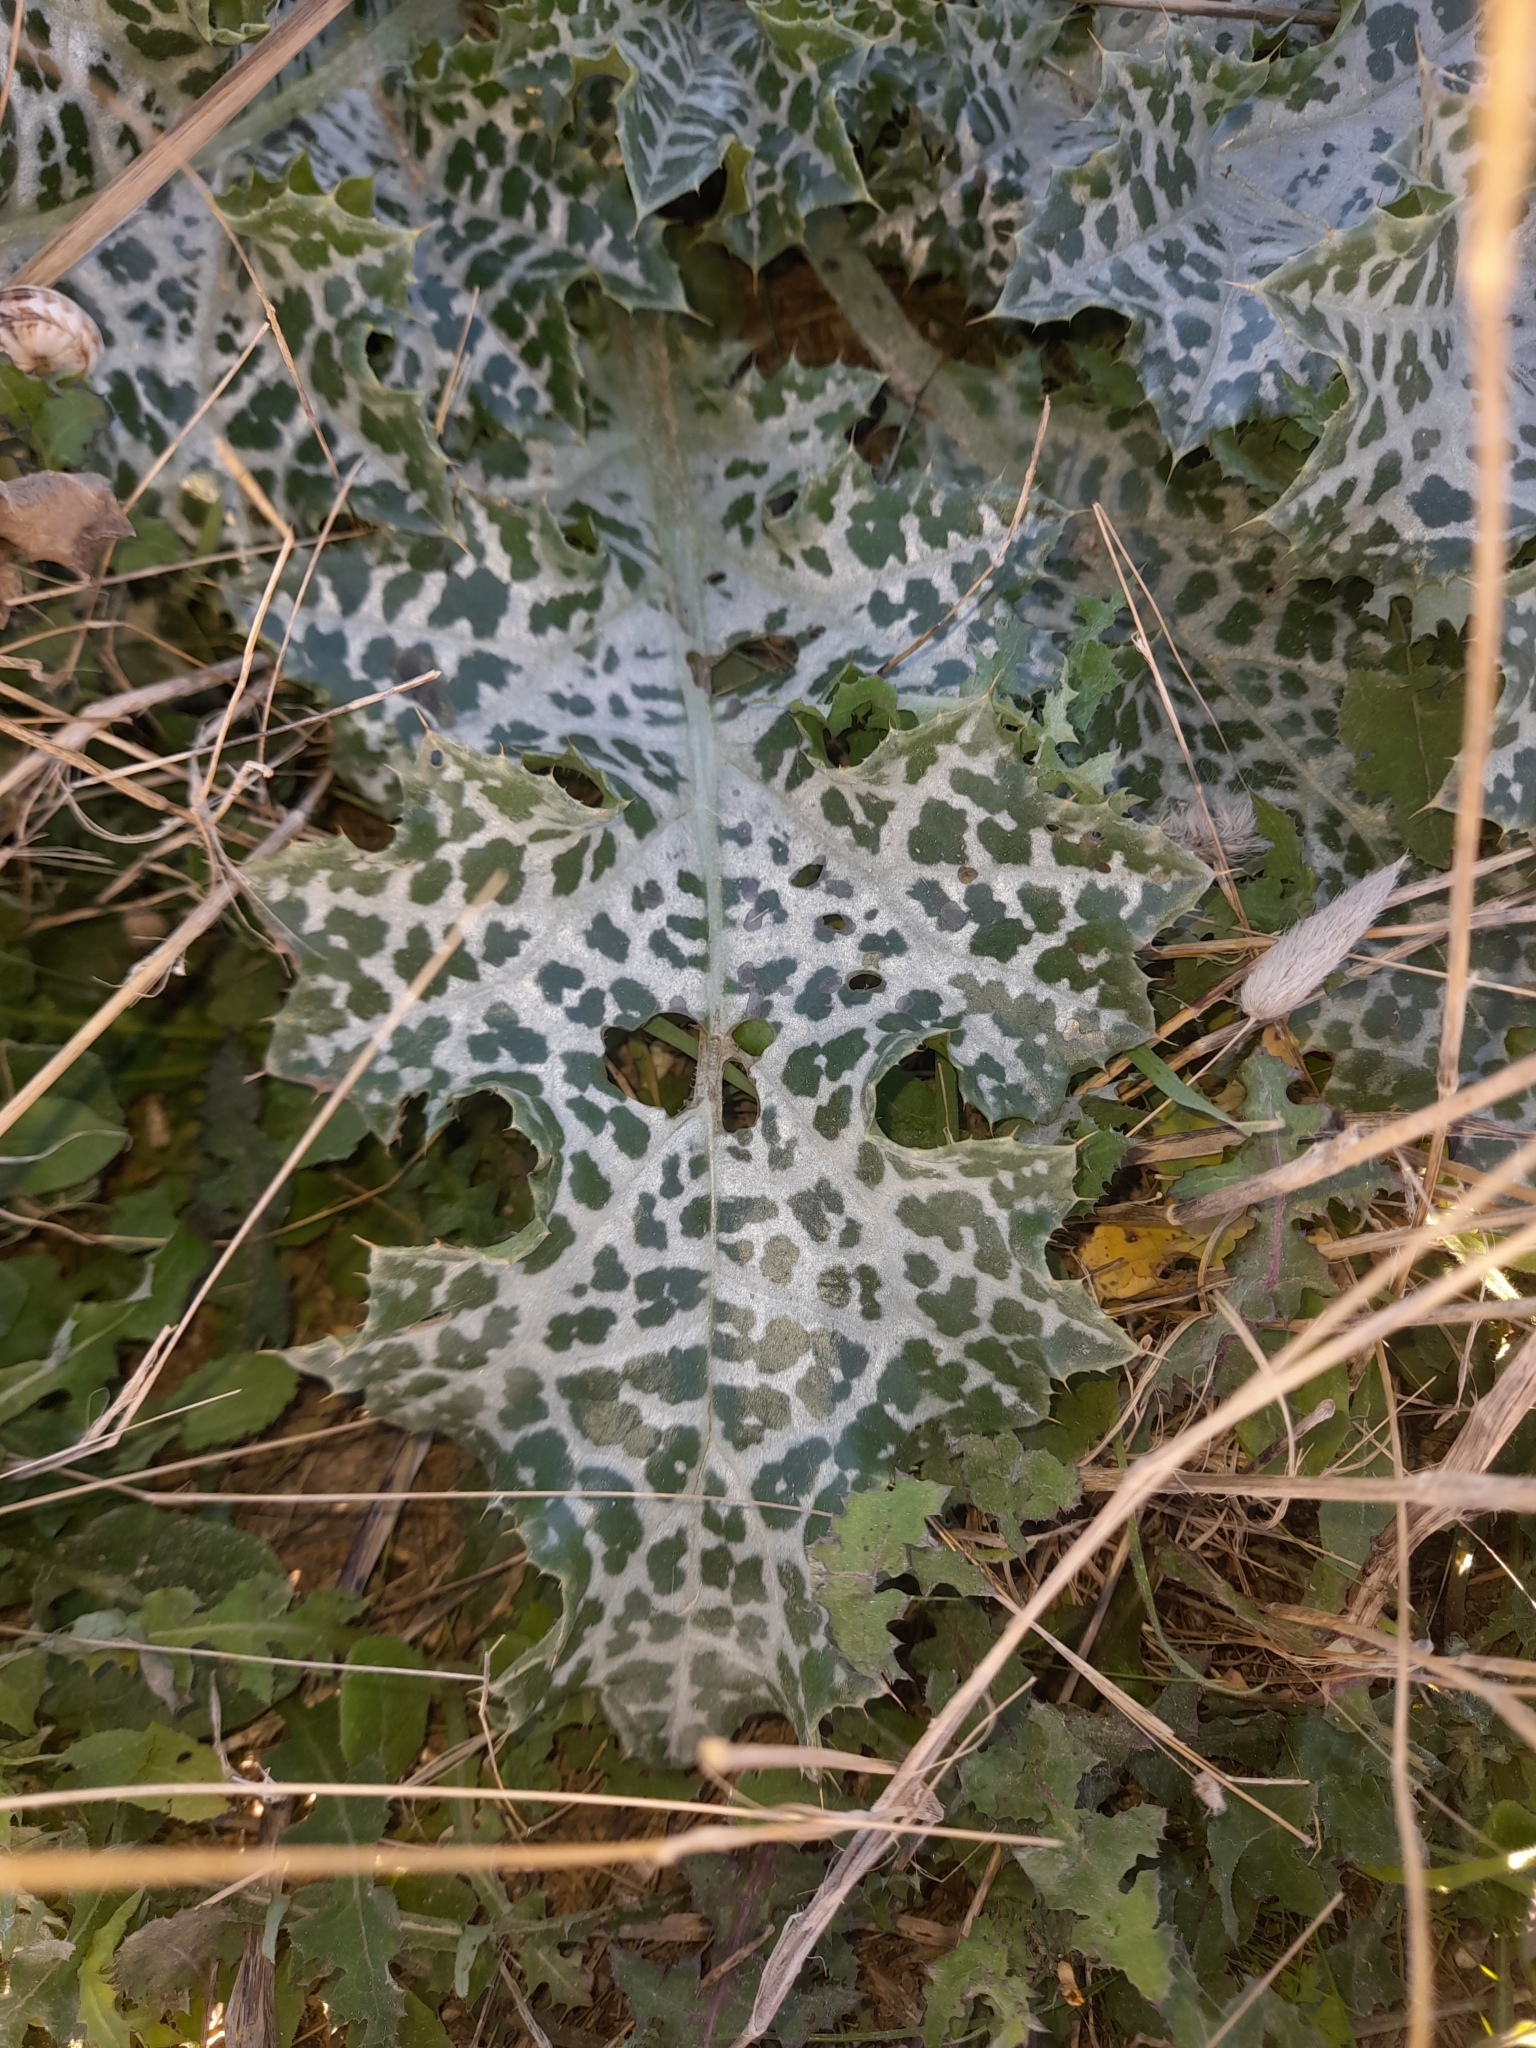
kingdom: Plantae
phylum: Tracheophyta
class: Magnoliopsida
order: Asterales
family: Asteraceae
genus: Silybum
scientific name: Silybum marianum
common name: Milk thistle
